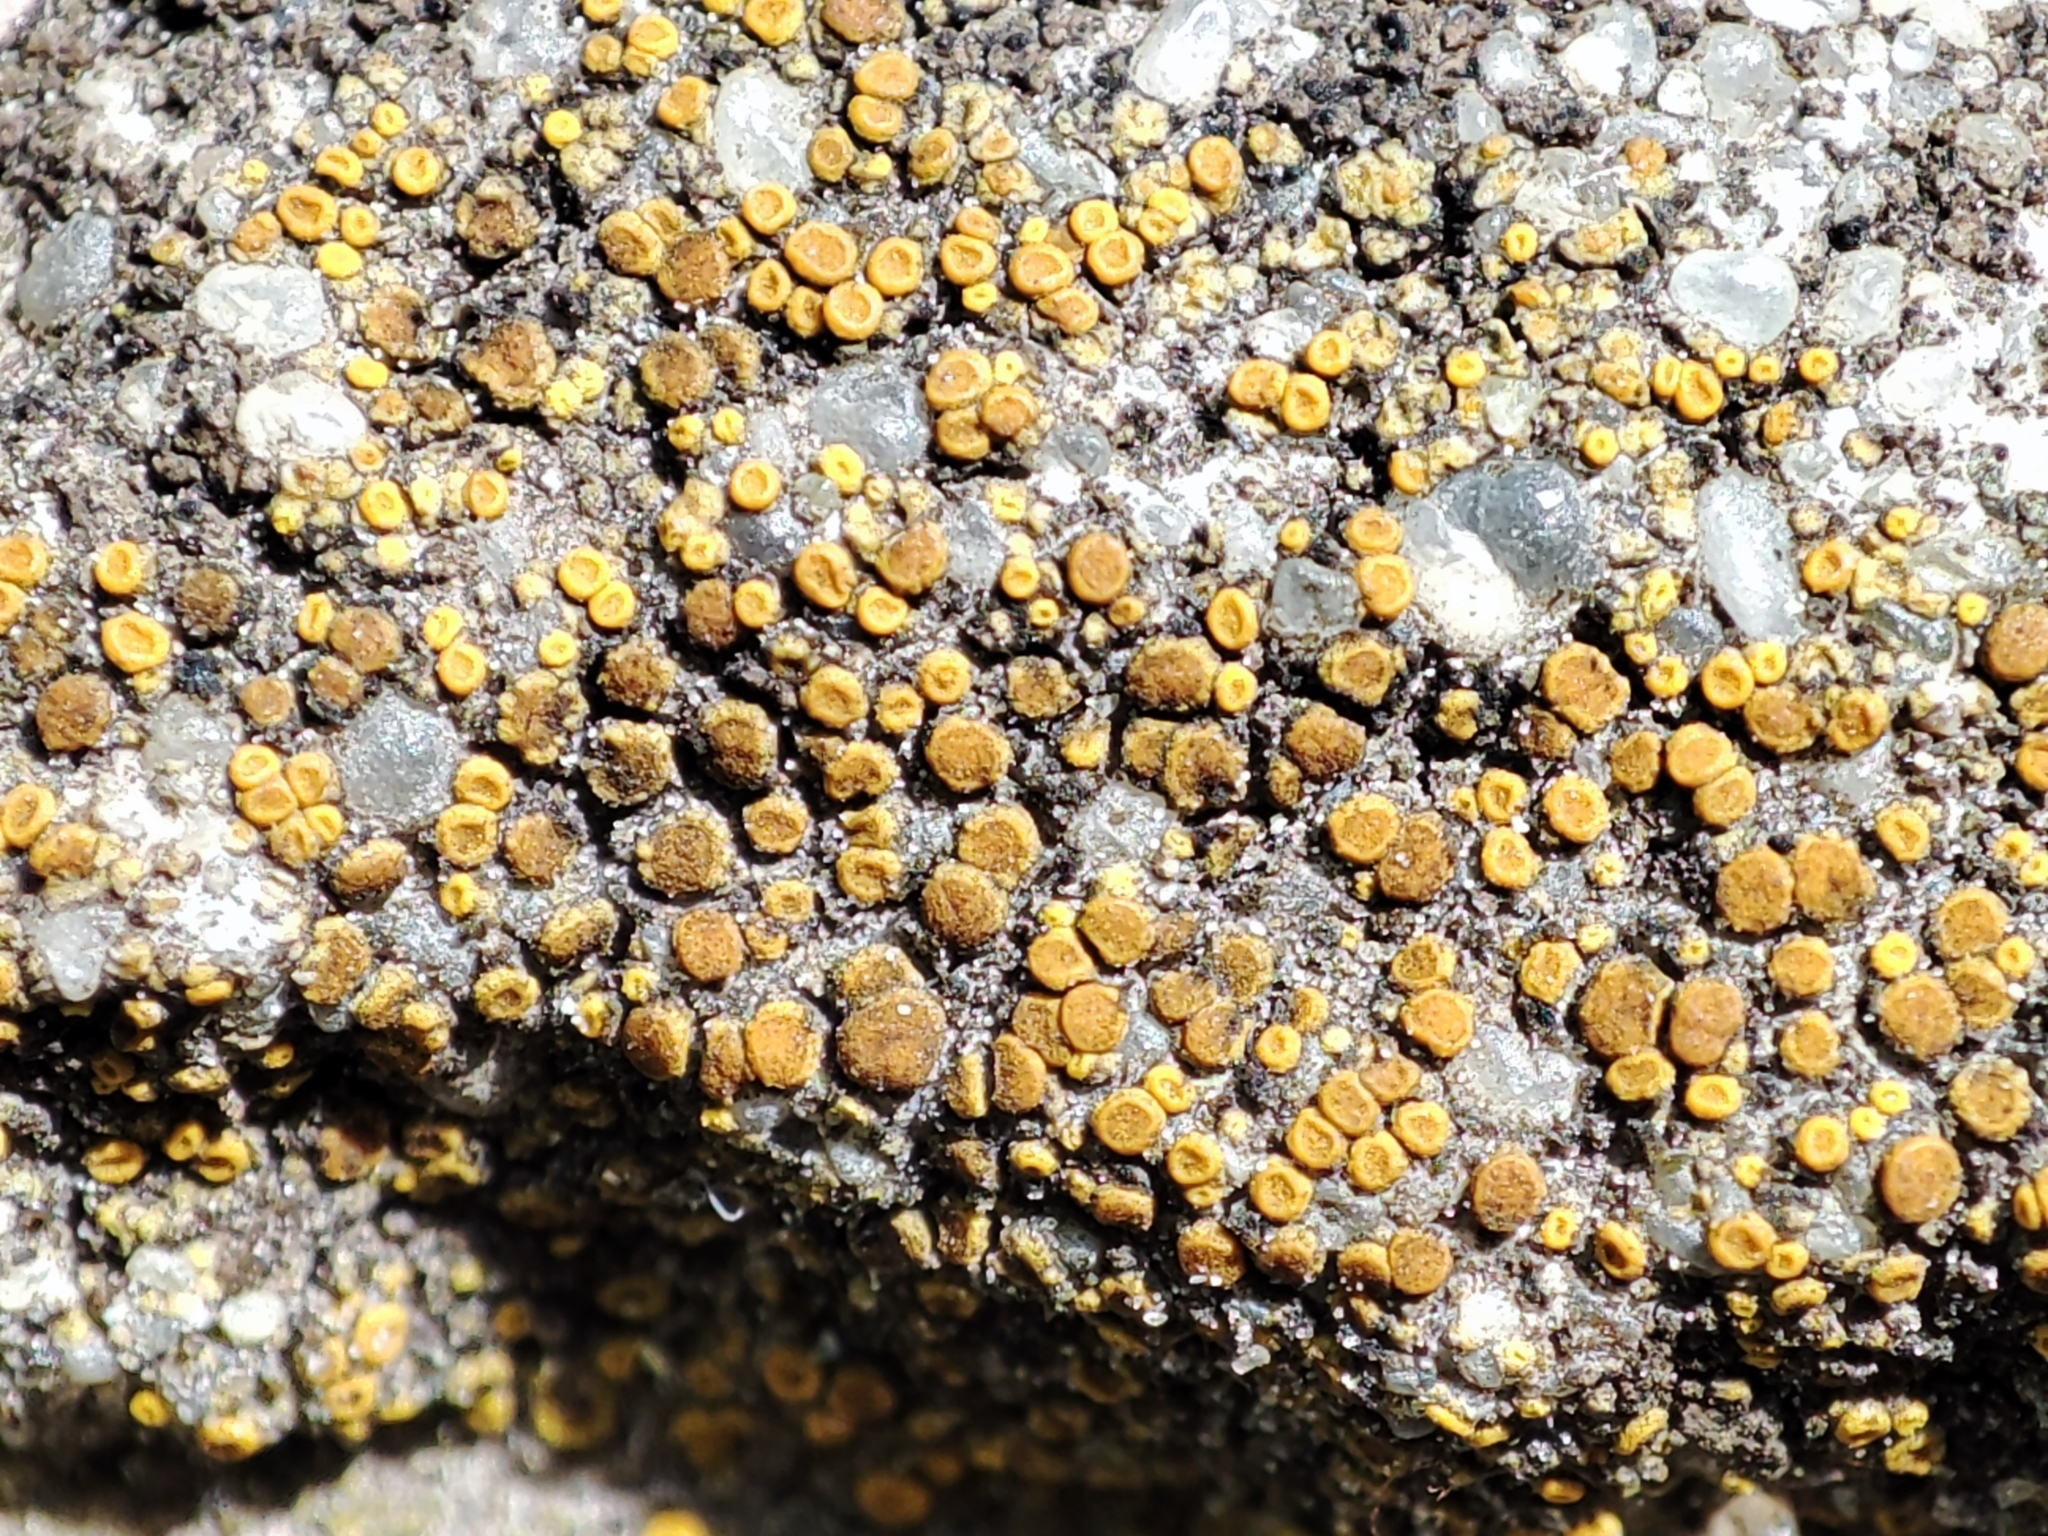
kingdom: Fungi
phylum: Ascomycota
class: Lecanoromycetes
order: Teloschistales
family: Teloschistaceae
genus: Xanthocarpia
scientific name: Xanthocarpia crenulatella
